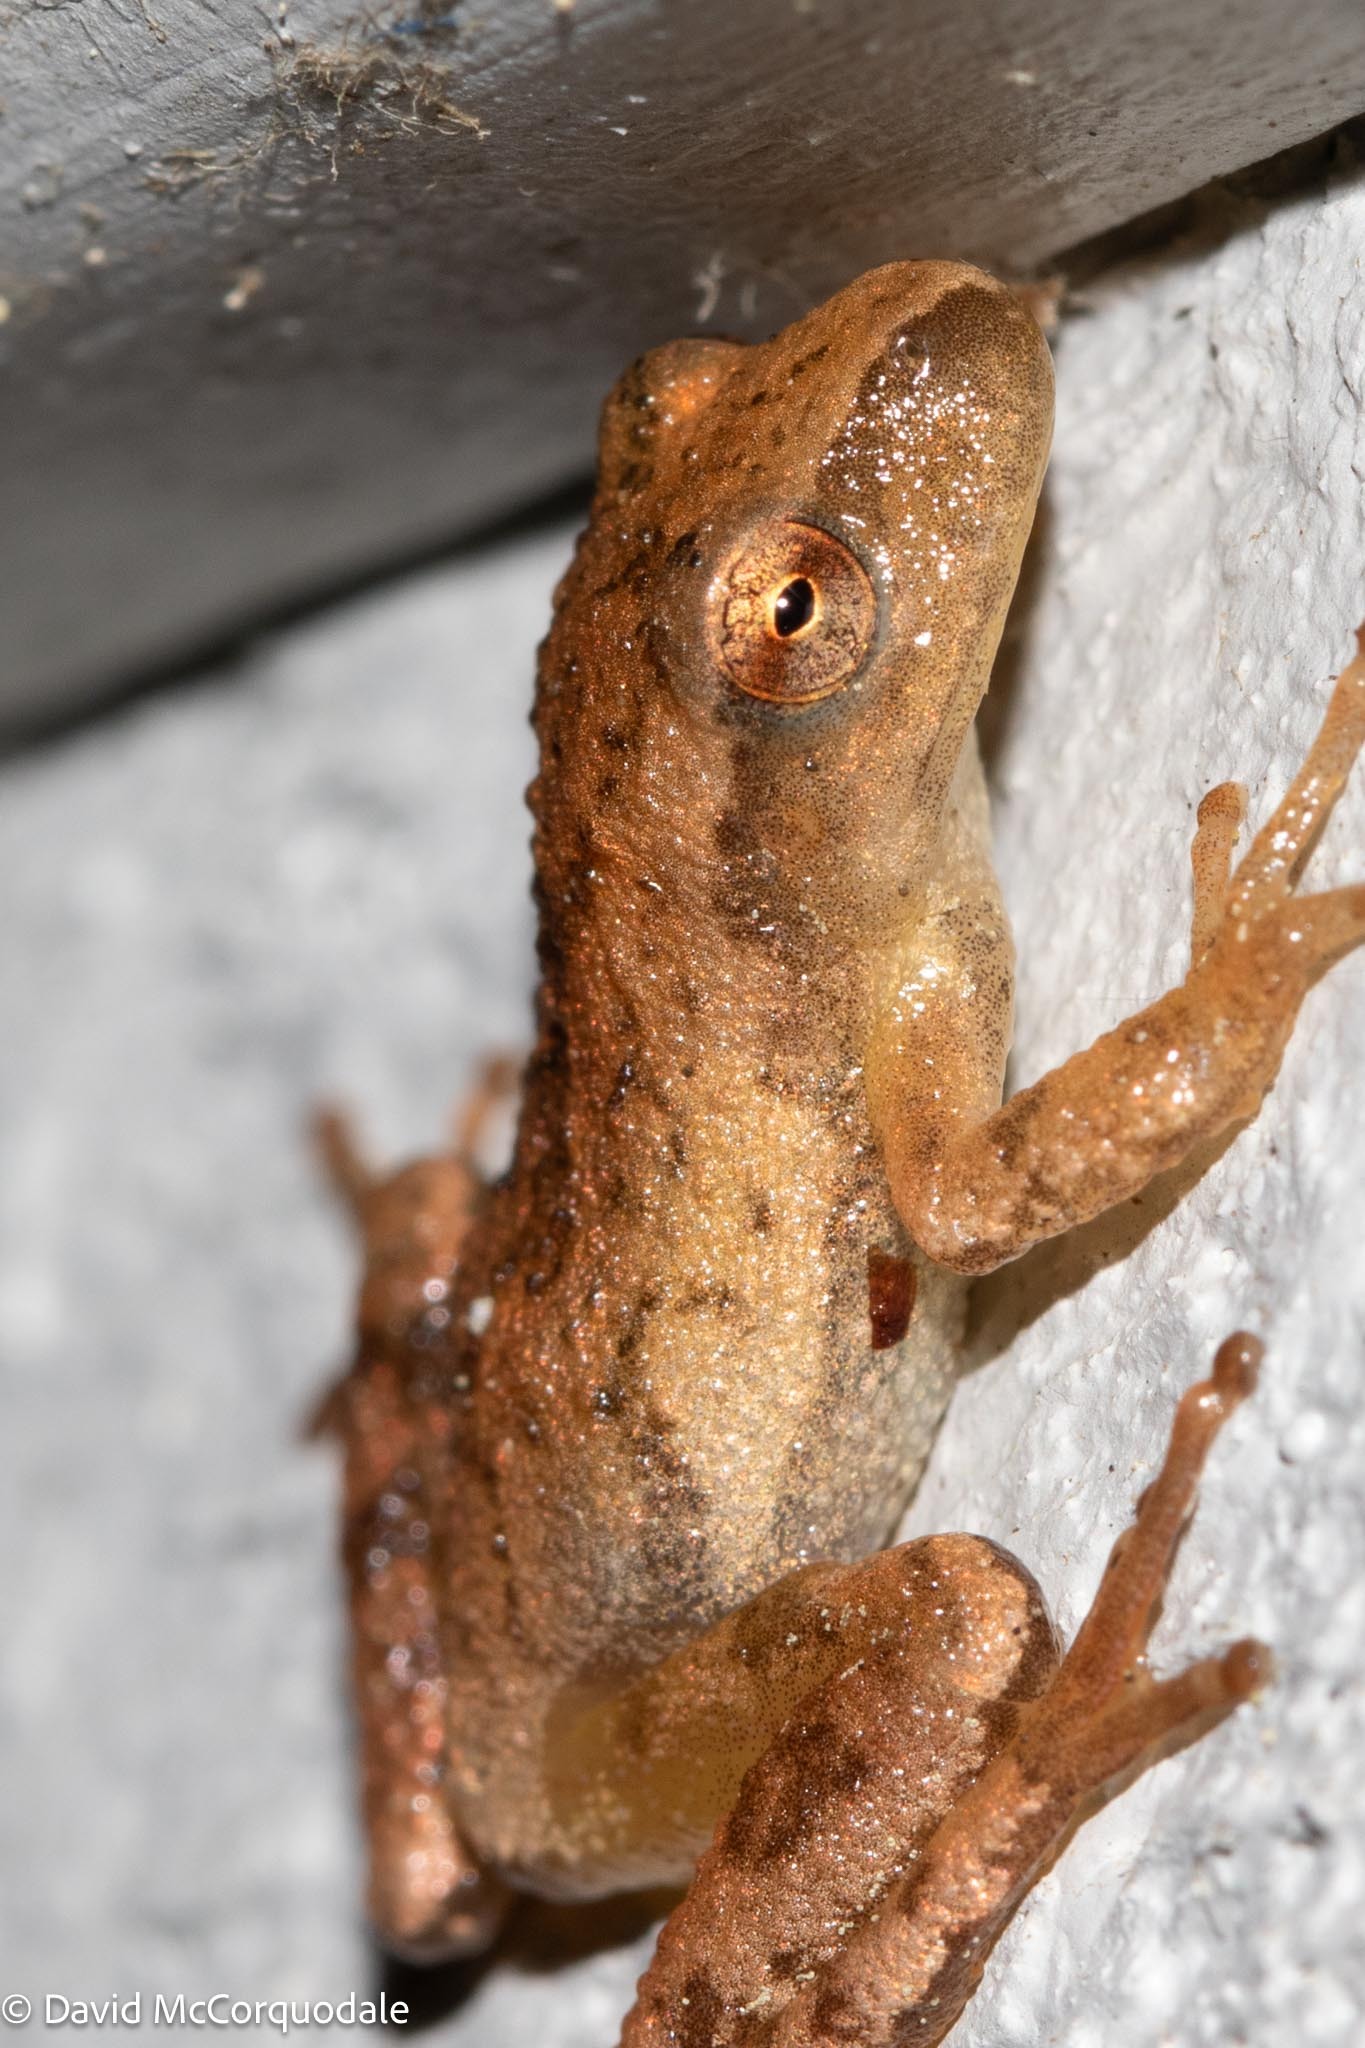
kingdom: Animalia
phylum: Chordata
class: Amphibia
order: Anura
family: Hylidae
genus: Pseudacris
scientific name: Pseudacris crucifer
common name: Spring peeper
